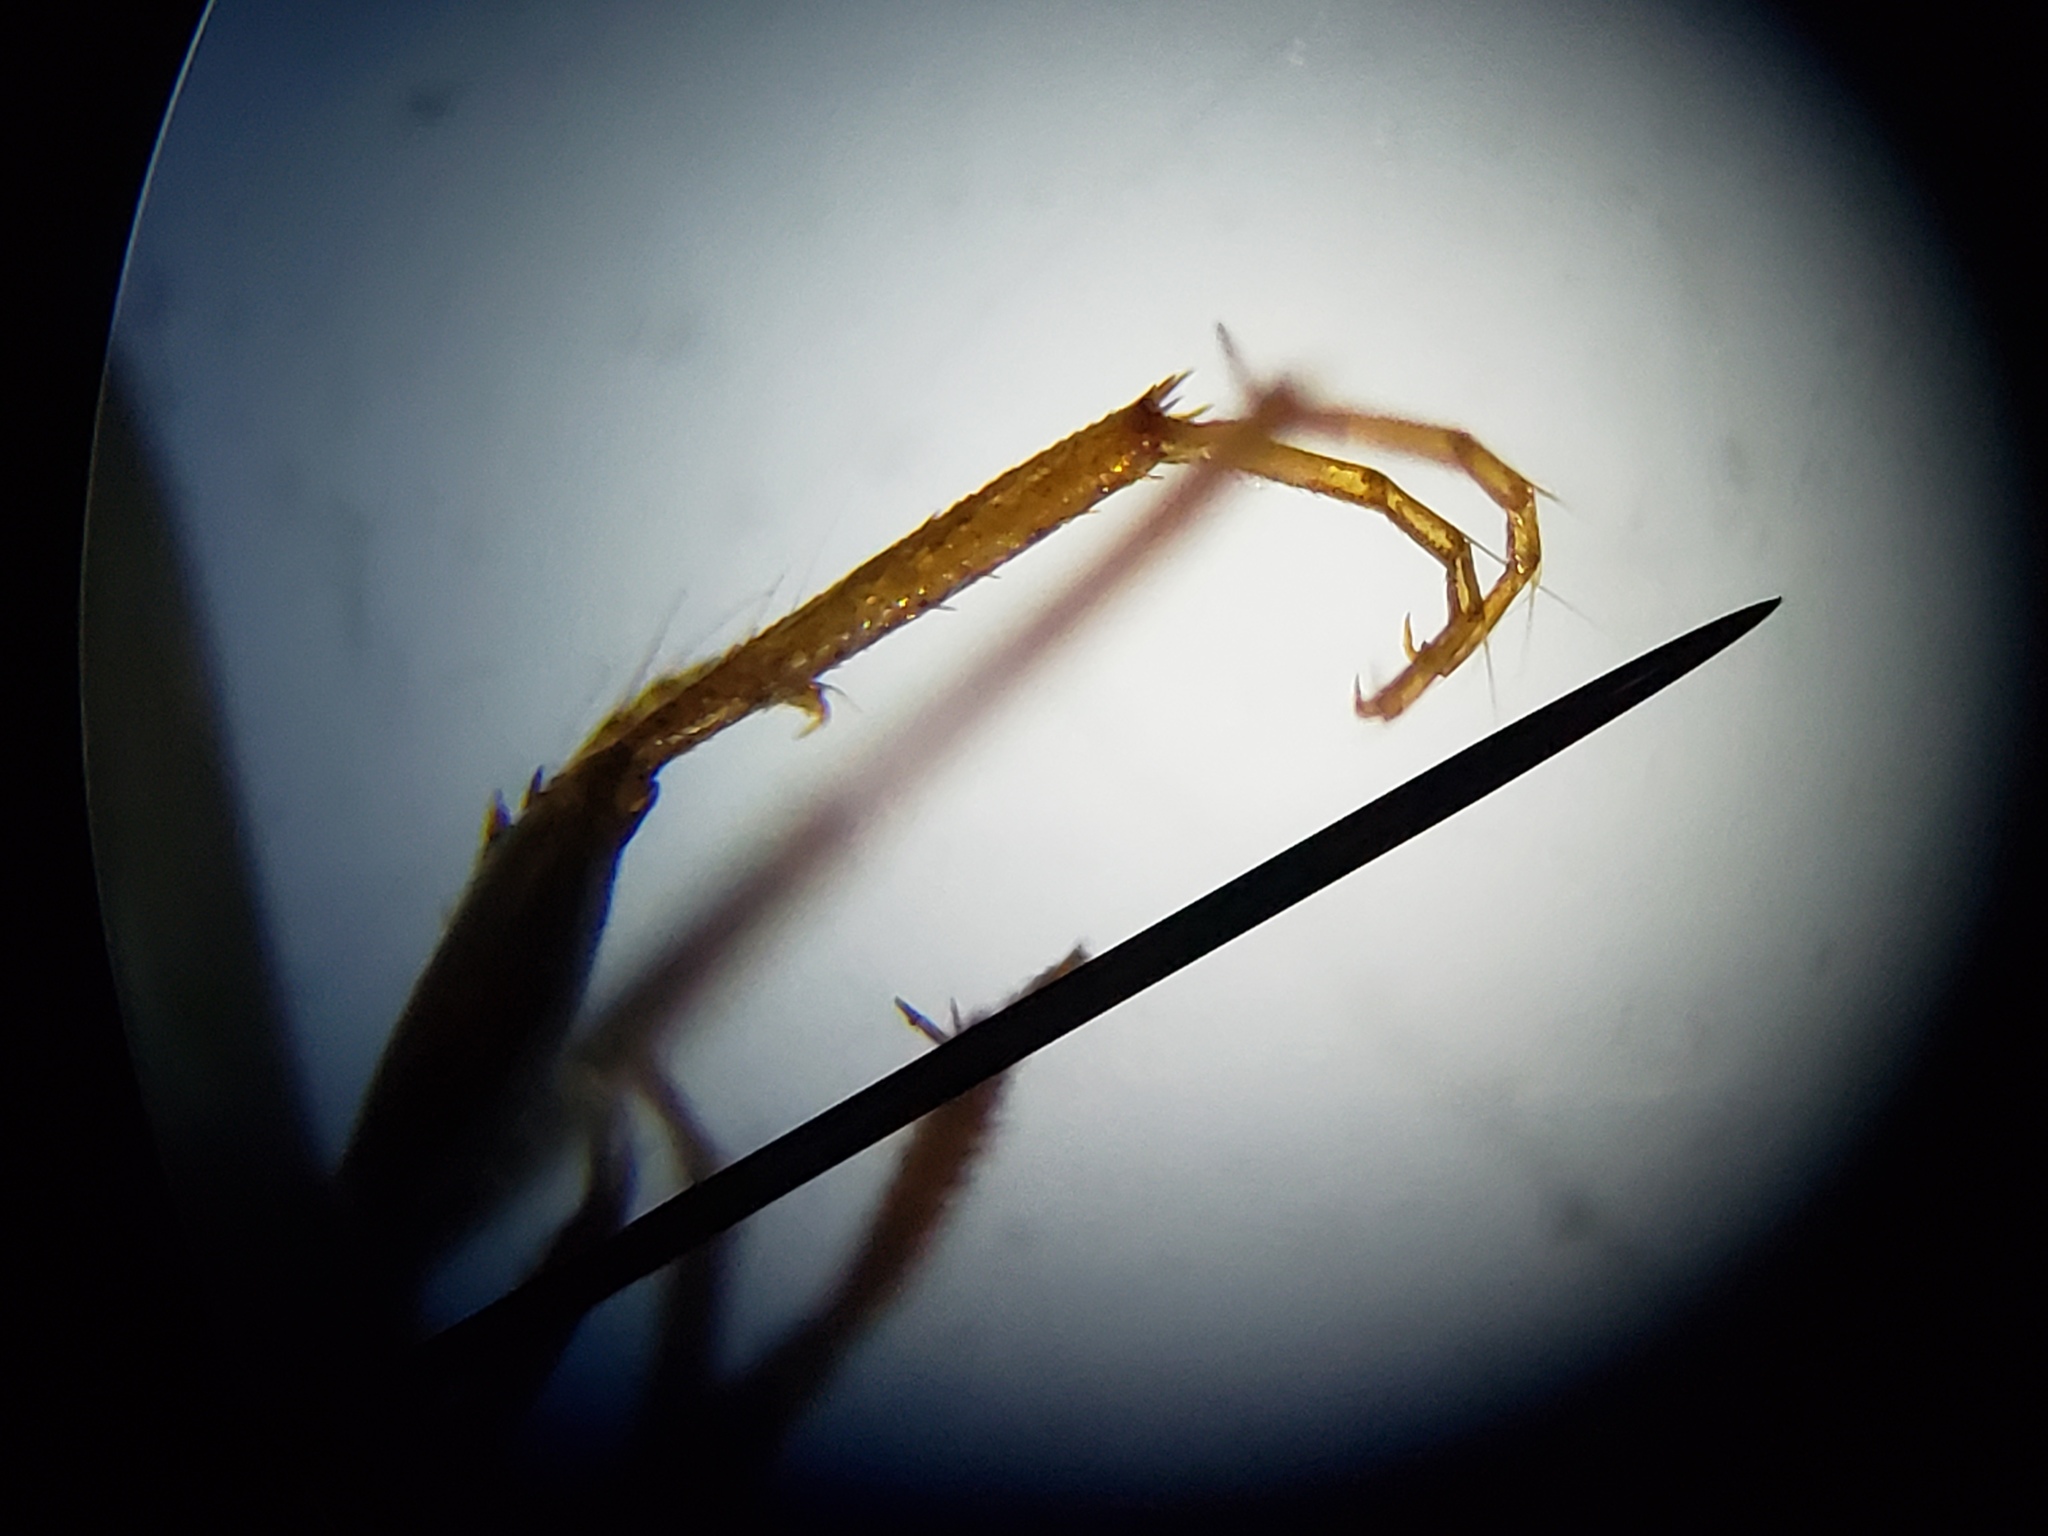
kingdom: Animalia
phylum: Arthropoda
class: Insecta
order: Coleoptera
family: Hydrophilidae
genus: Enochrus
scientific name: Enochrus pygmaeus
